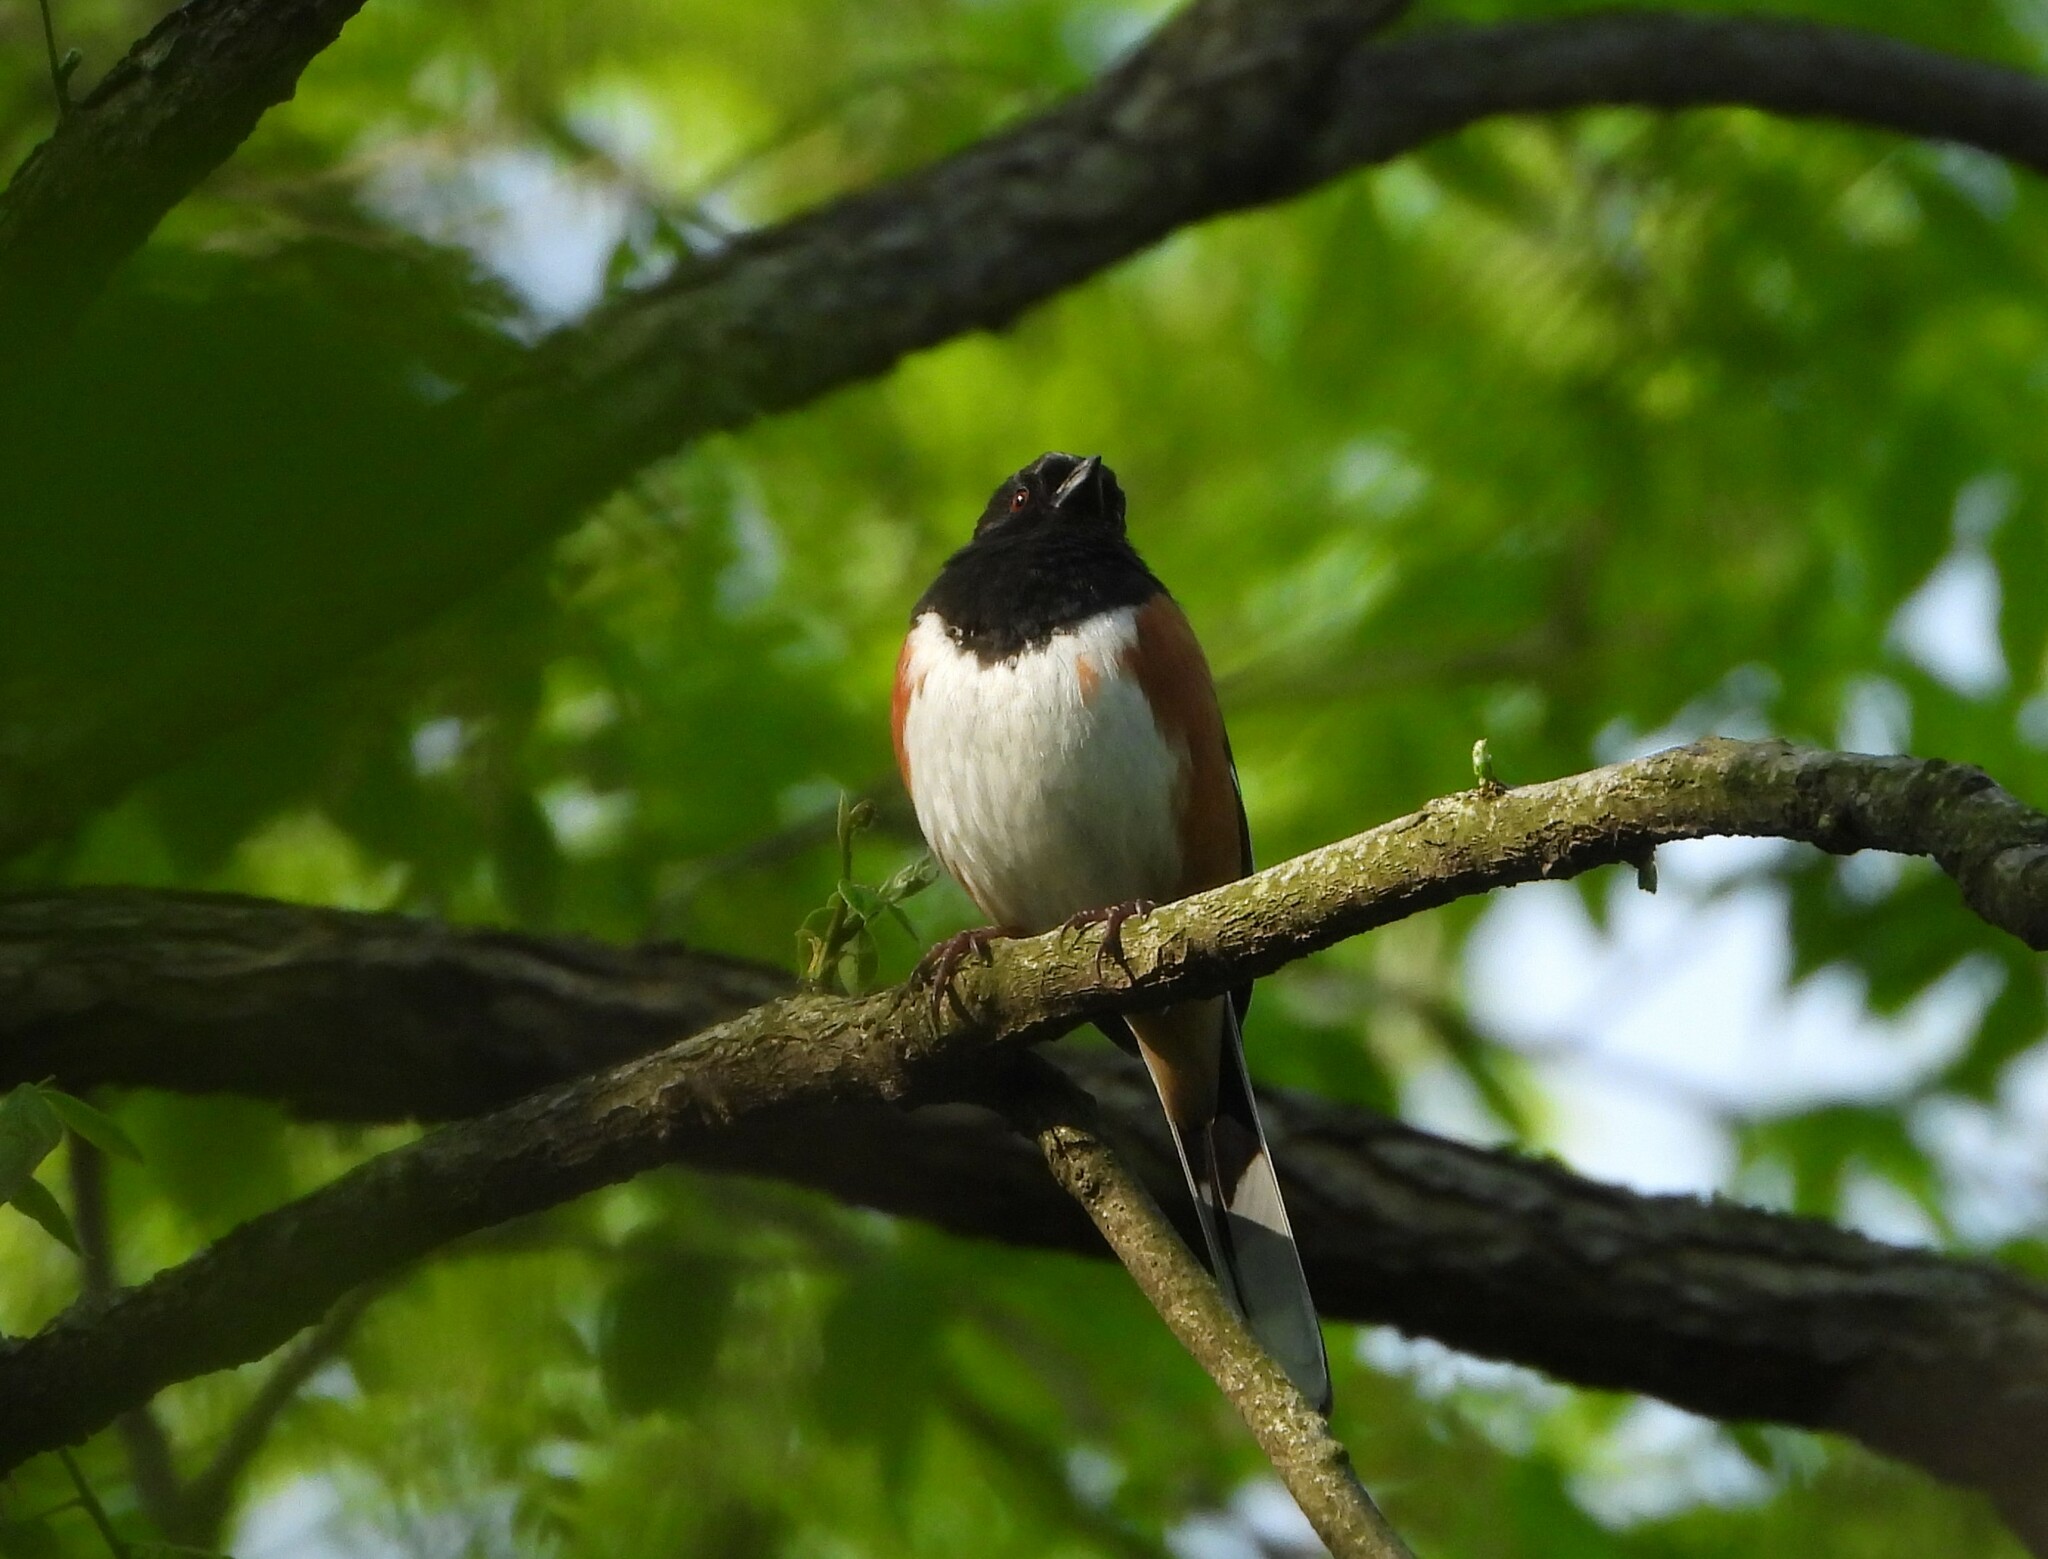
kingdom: Animalia
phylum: Chordata
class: Aves
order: Passeriformes
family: Passerellidae
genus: Pipilo
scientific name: Pipilo erythrophthalmus
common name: Eastern towhee
